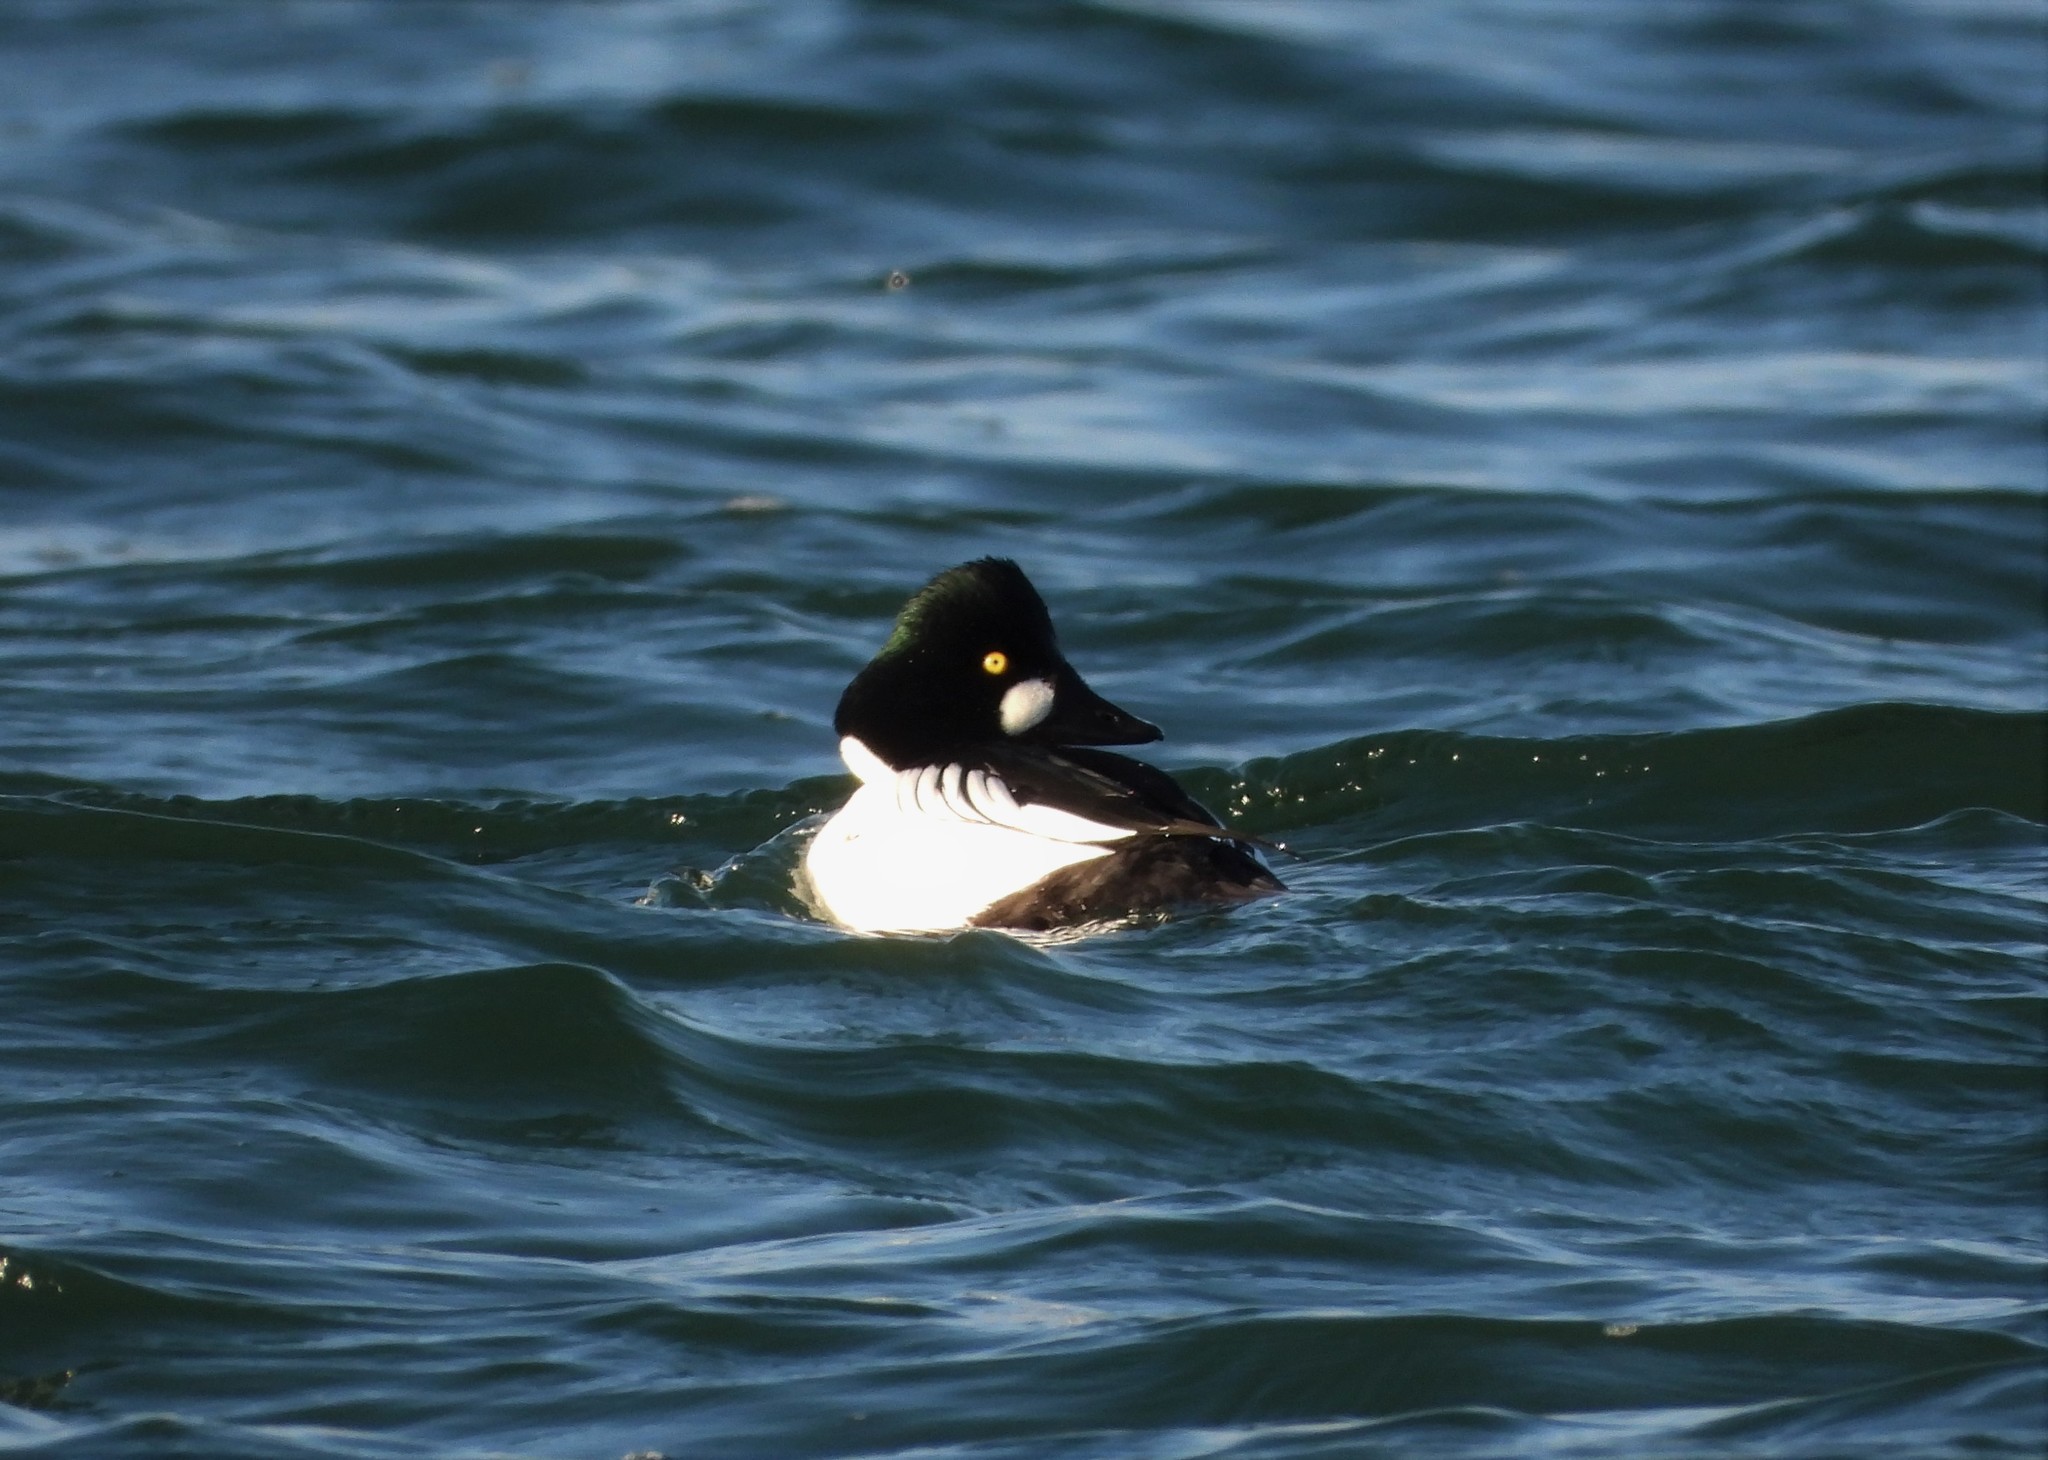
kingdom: Animalia
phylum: Chordata
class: Aves
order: Anseriformes
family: Anatidae
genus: Bucephala
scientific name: Bucephala clangula
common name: Common goldeneye
